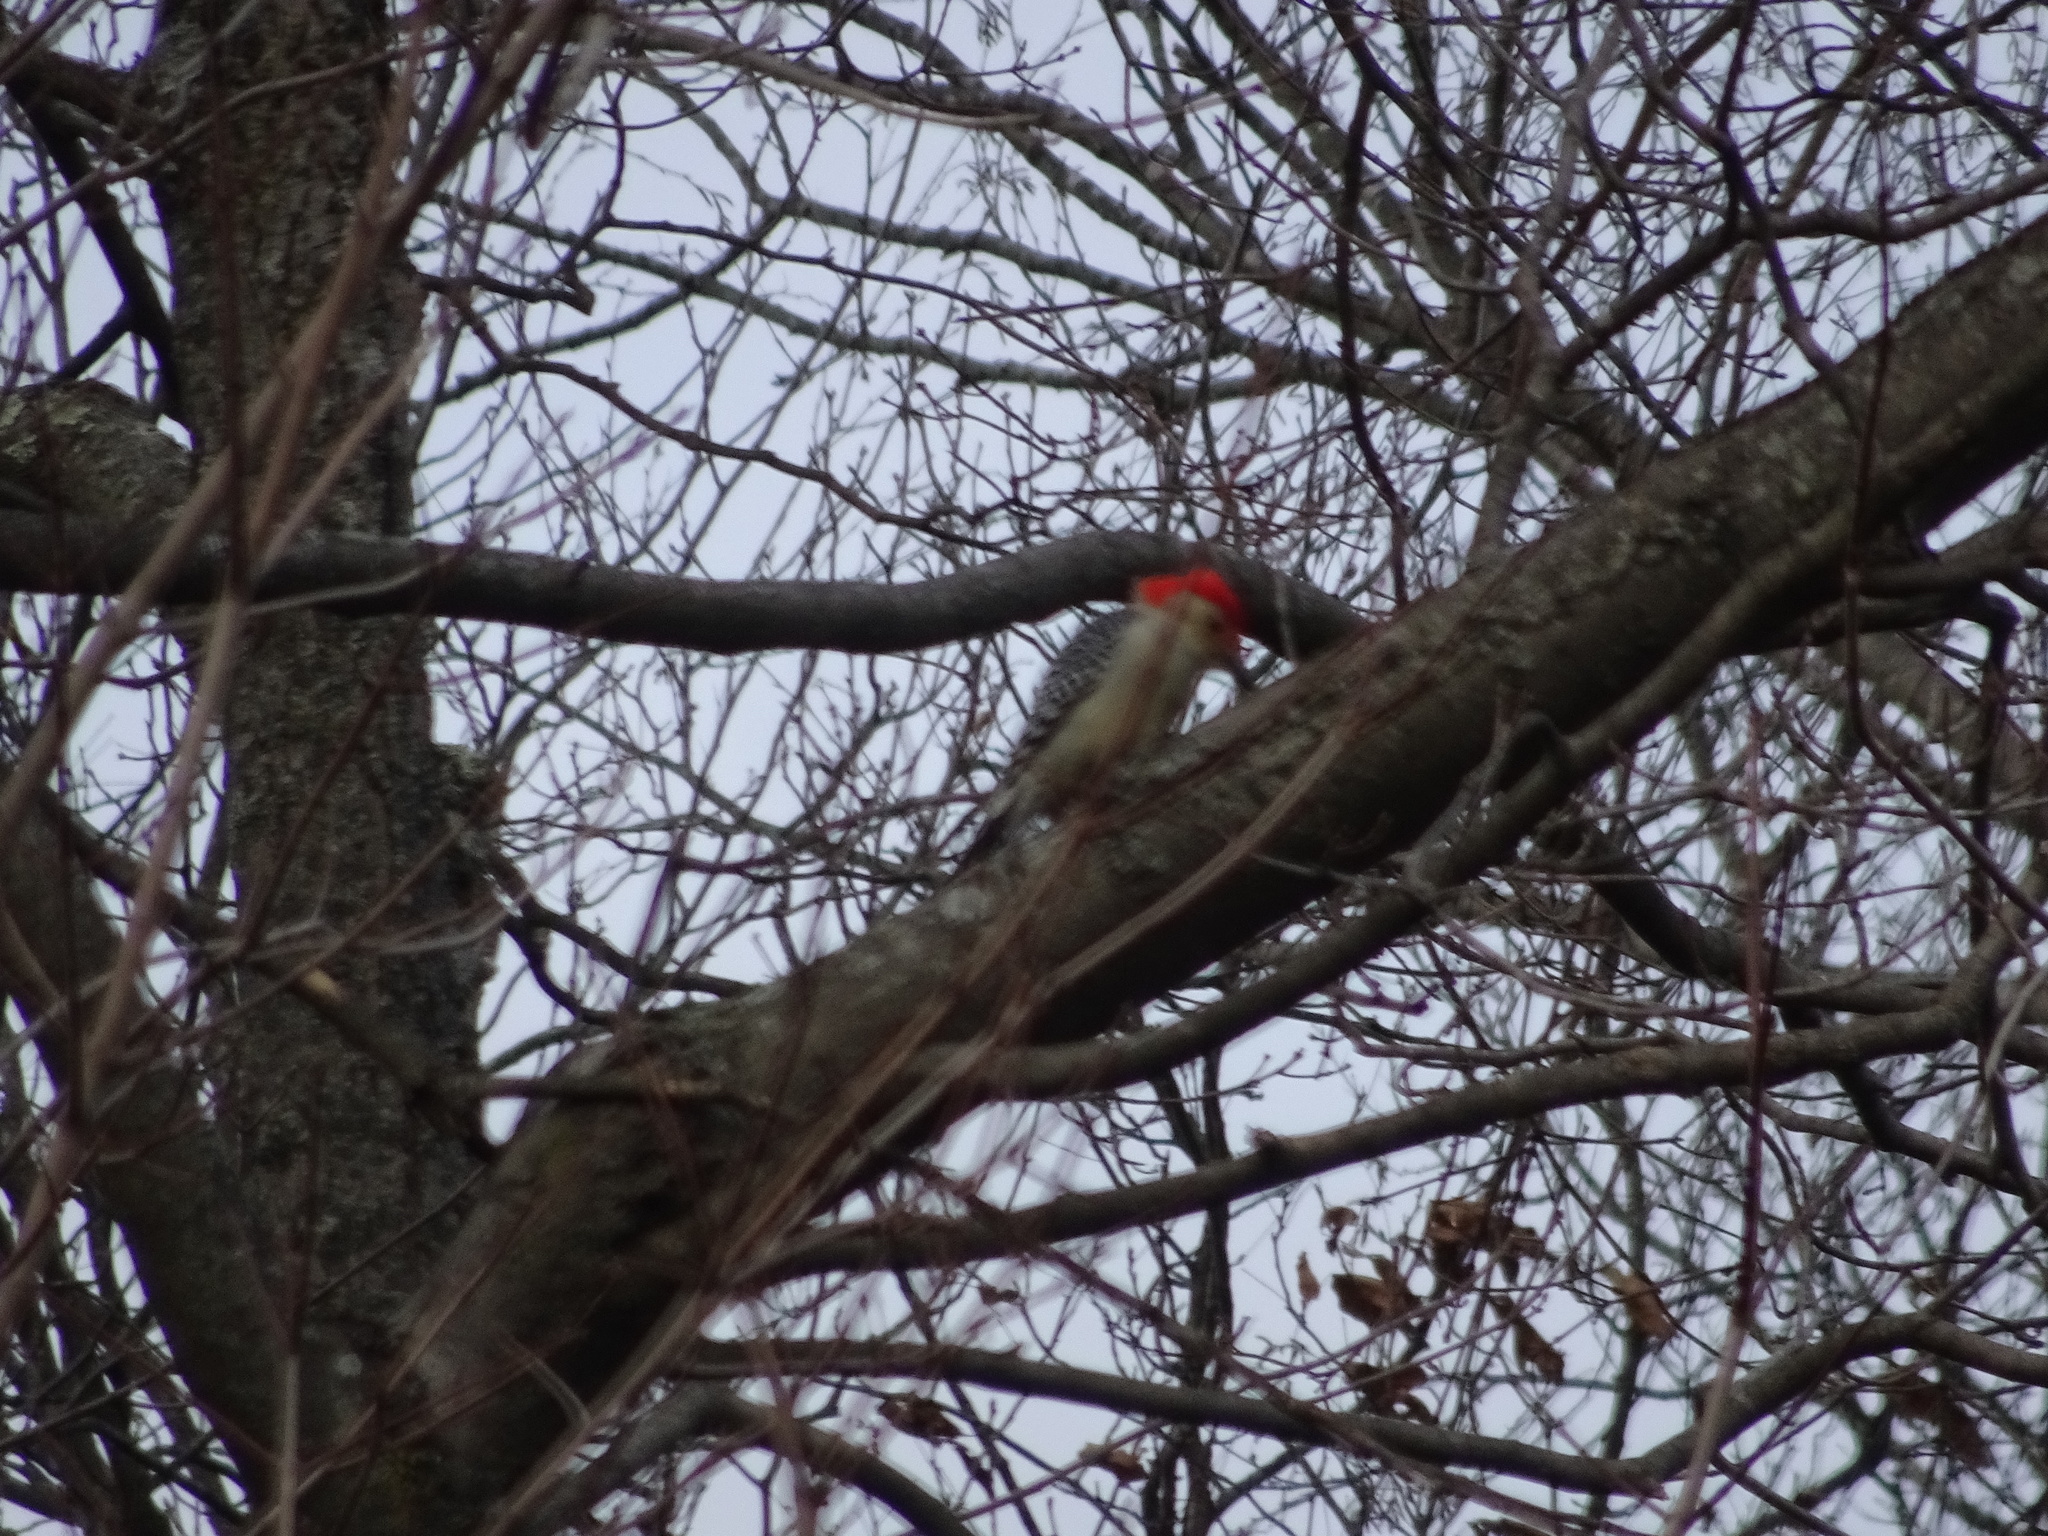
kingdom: Animalia
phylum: Chordata
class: Aves
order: Piciformes
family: Picidae
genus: Melanerpes
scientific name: Melanerpes carolinus
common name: Red-bellied woodpecker
